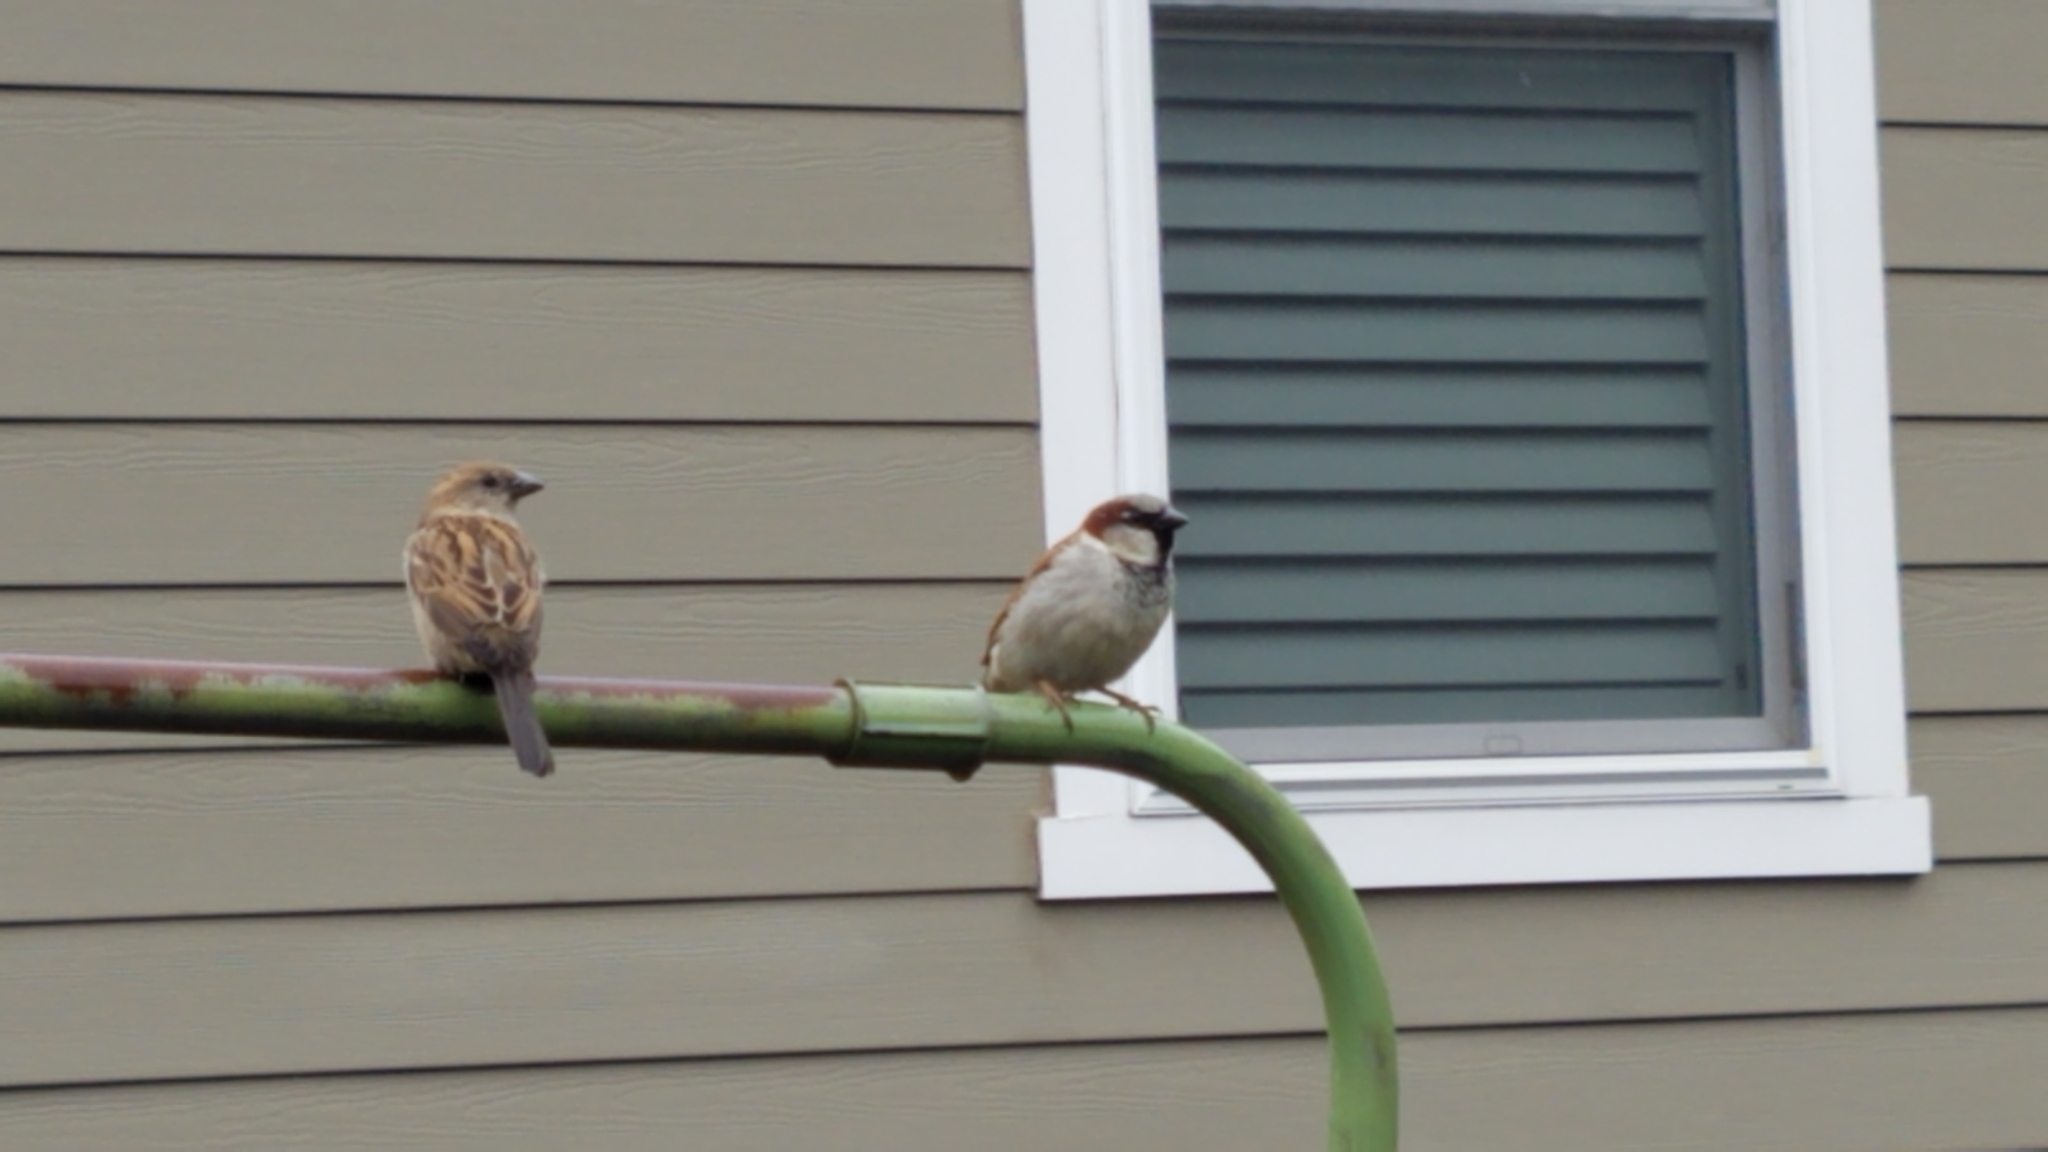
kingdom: Animalia
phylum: Chordata
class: Aves
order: Passeriformes
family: Passeridae
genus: Passer
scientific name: Passer domesticus
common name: House sparrow
